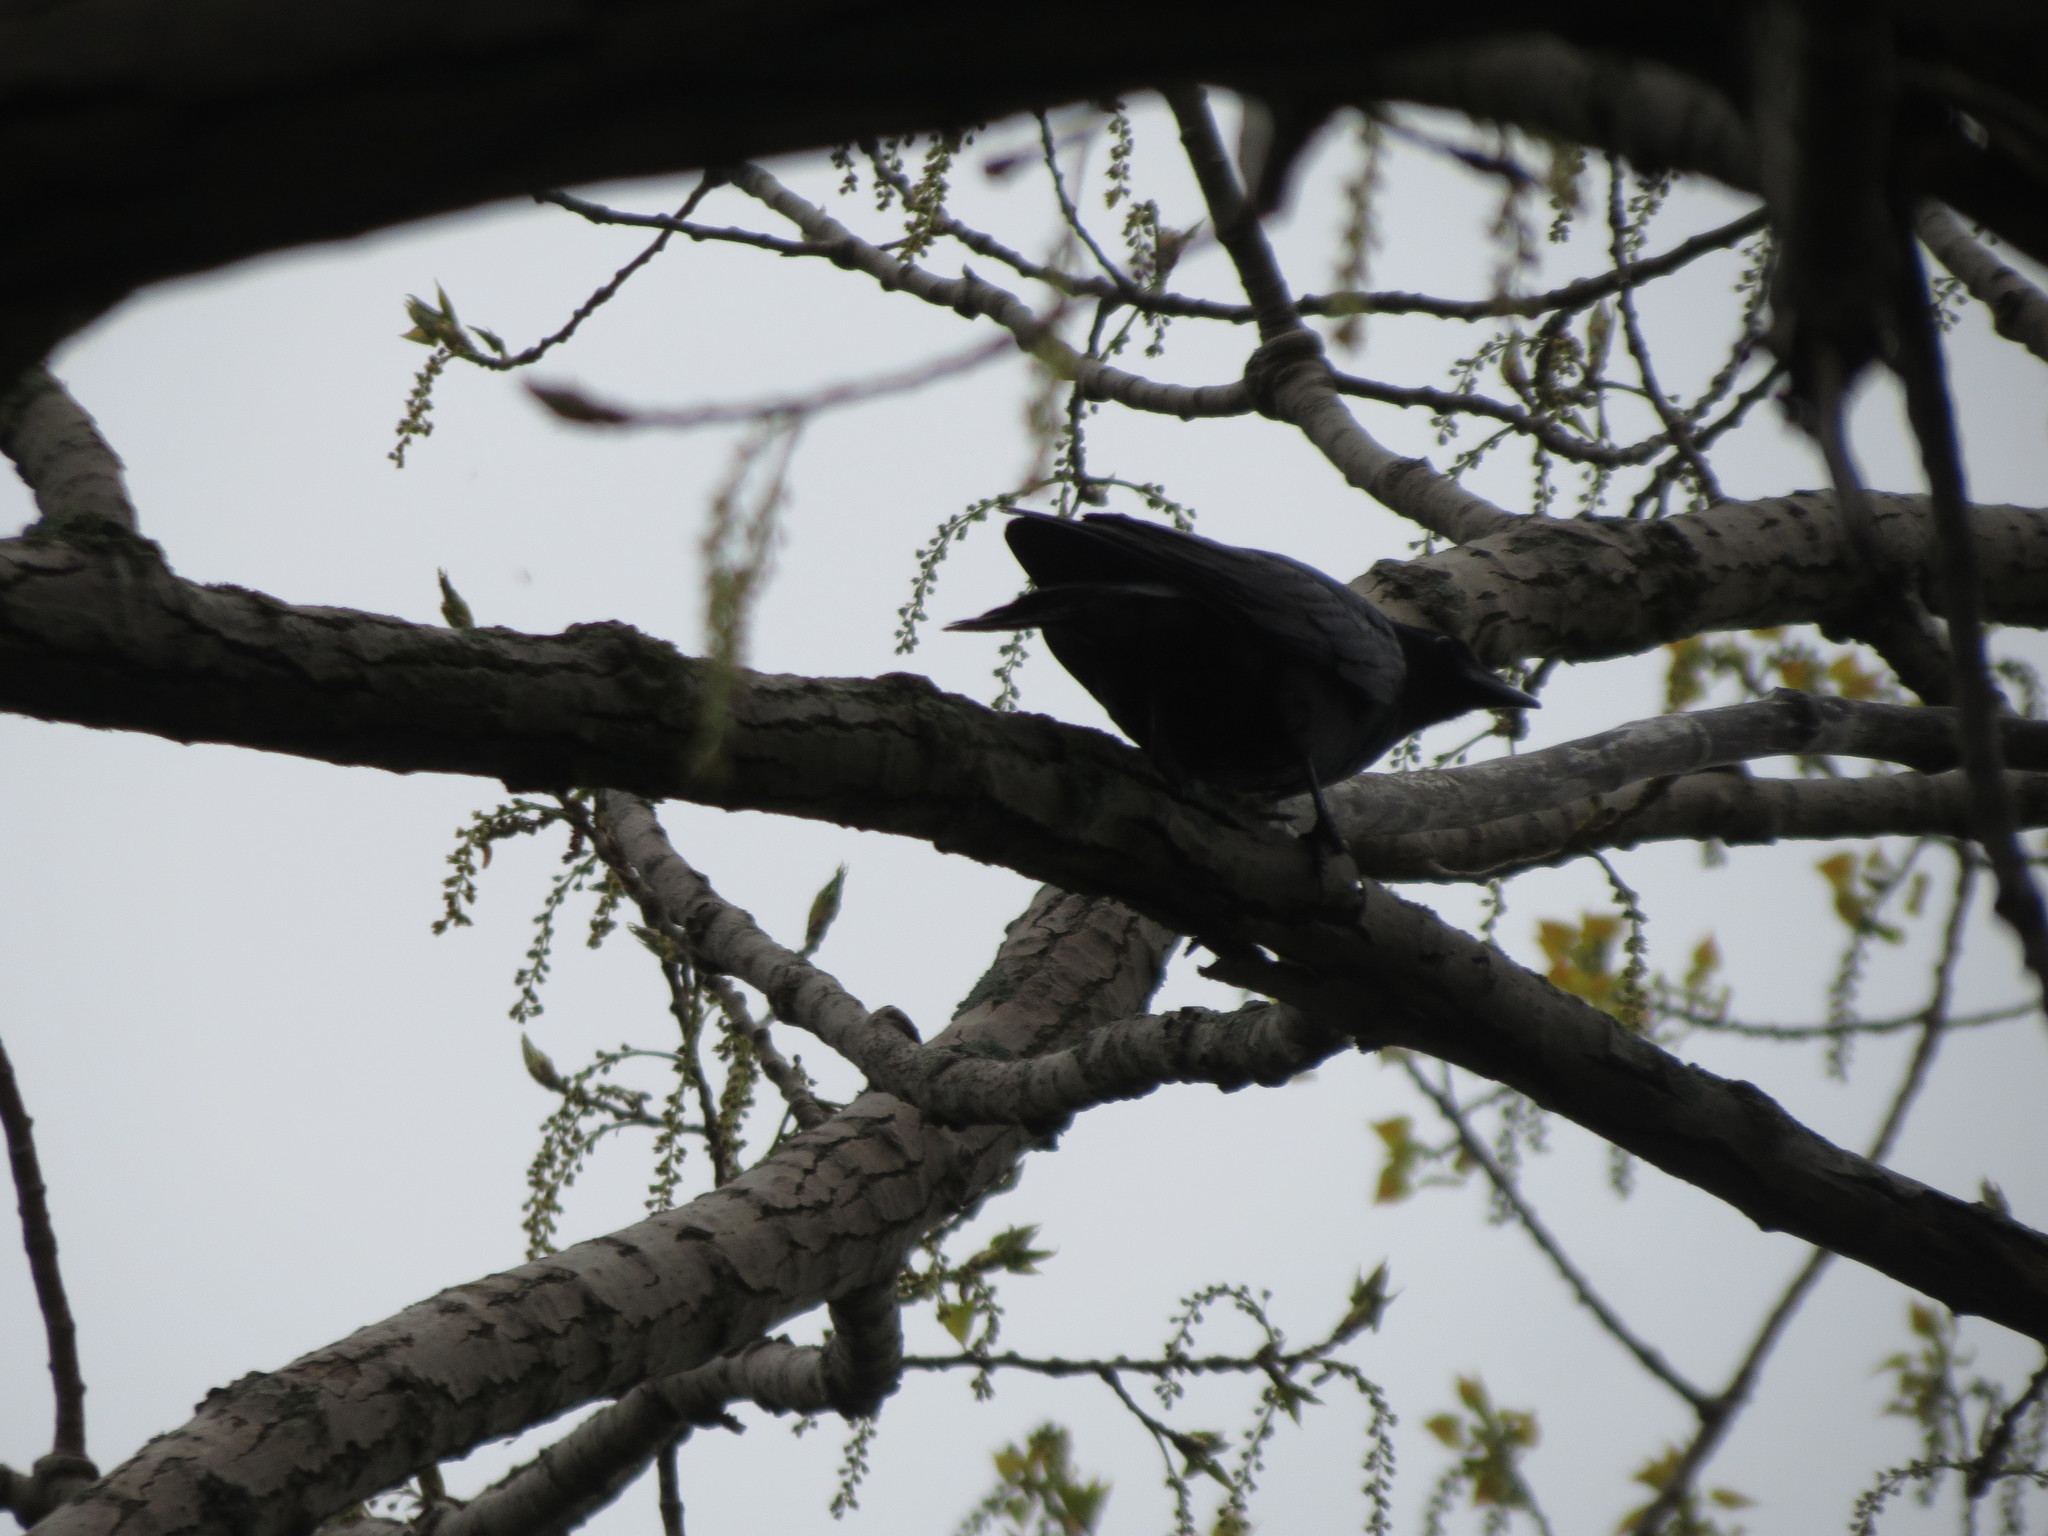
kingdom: Animalia
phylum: Chordata
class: Aves
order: Passeriformes
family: Corvidae
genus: Corvus
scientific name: Corvus ossifragus
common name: Fish crow
